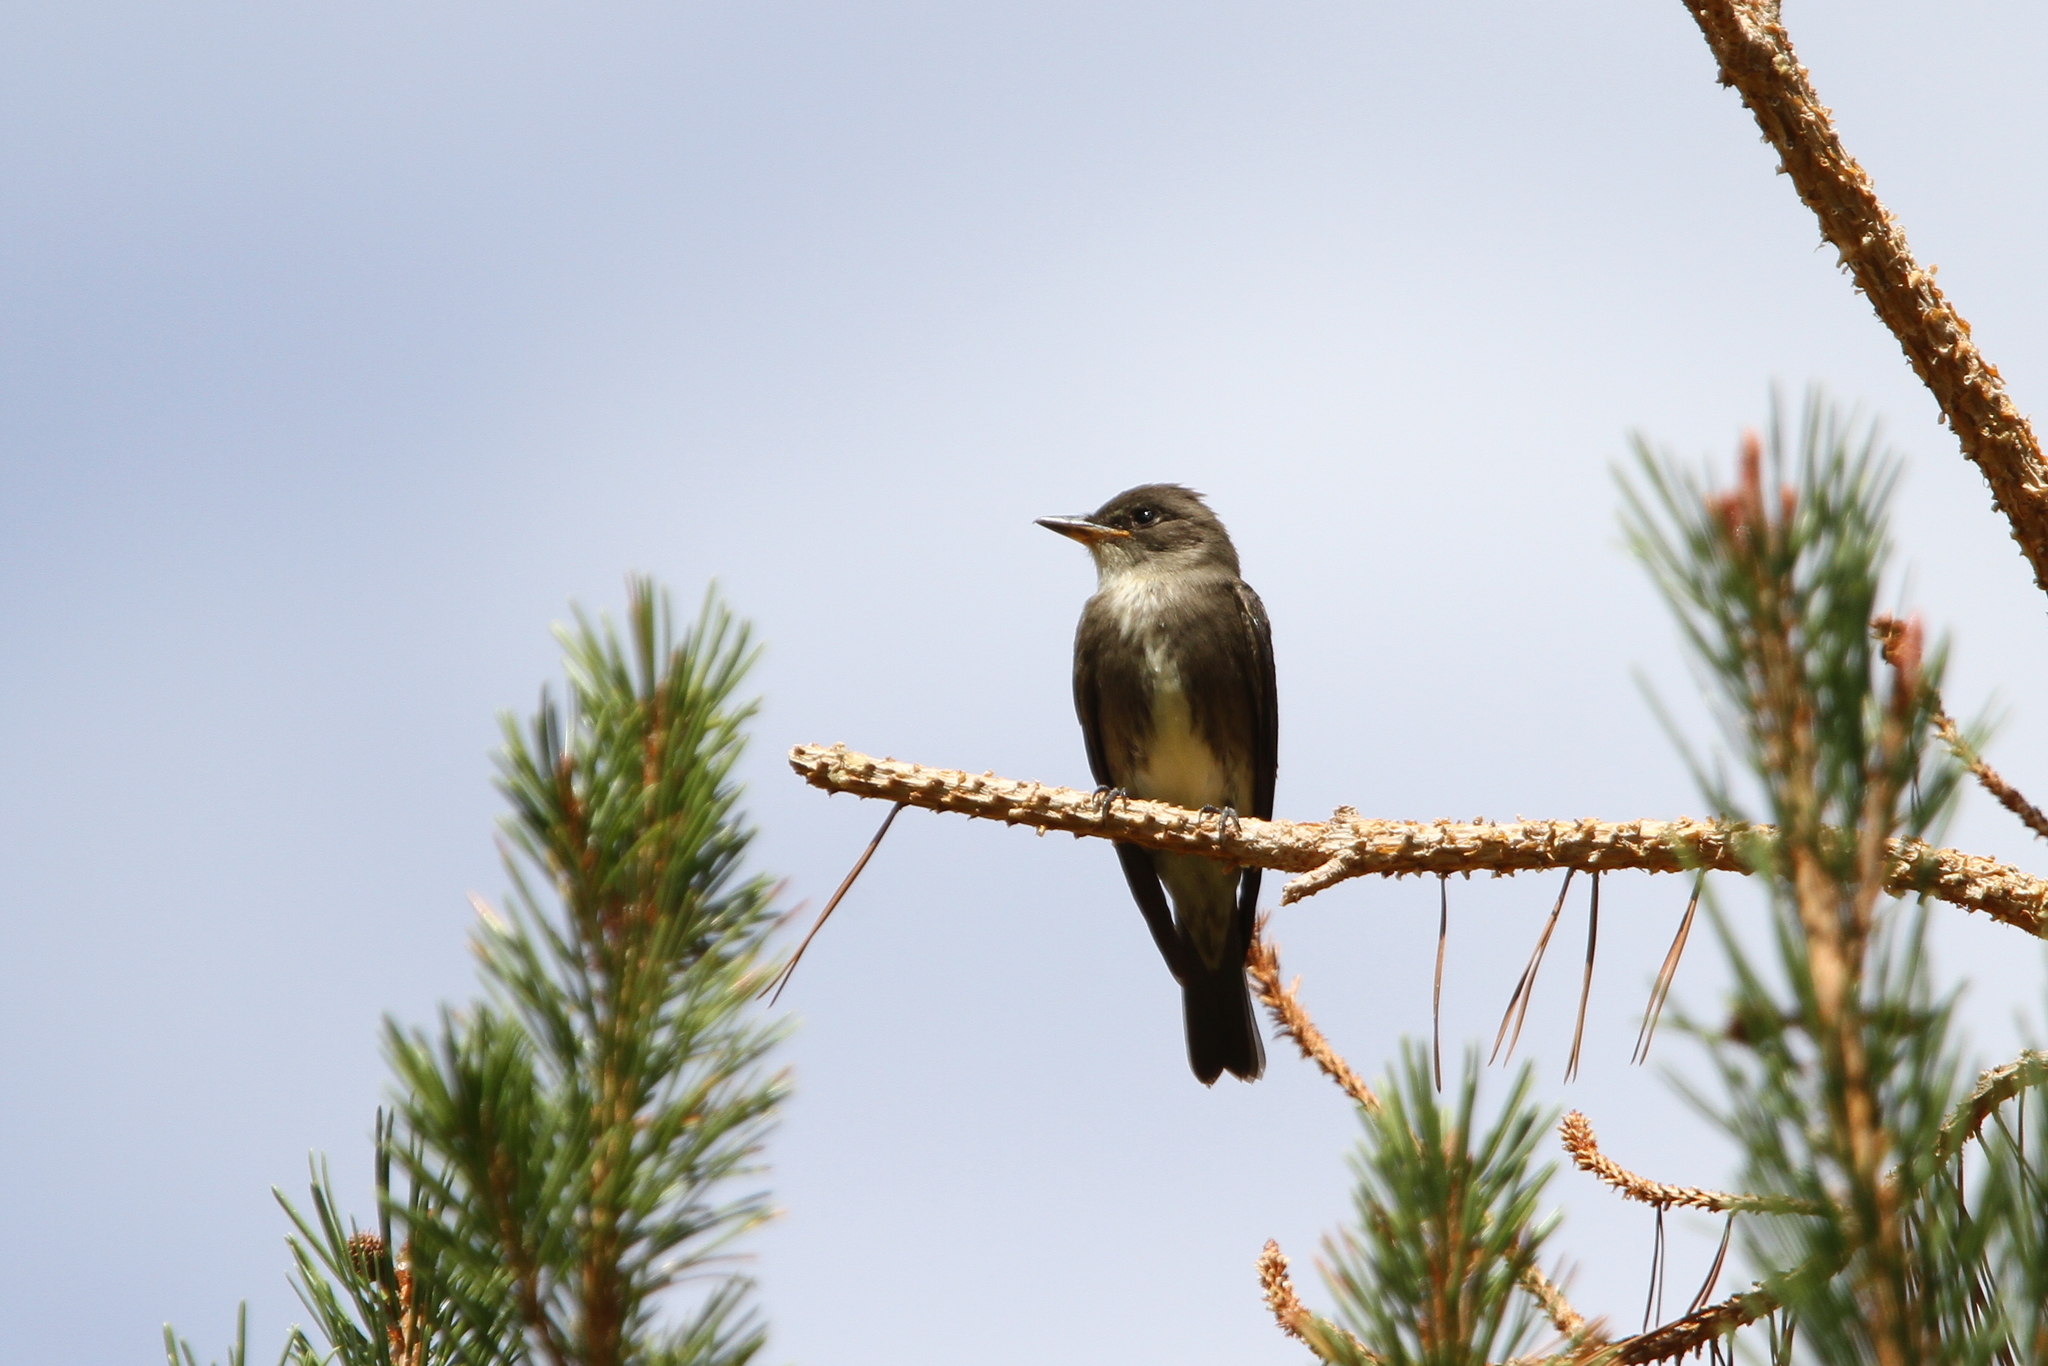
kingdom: Animalia
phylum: Chordata
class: Aves
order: Passeriformes
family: Tyrannidae
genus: Contopus
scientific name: Contopus cooperi
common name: Olive-sided flycatcher
